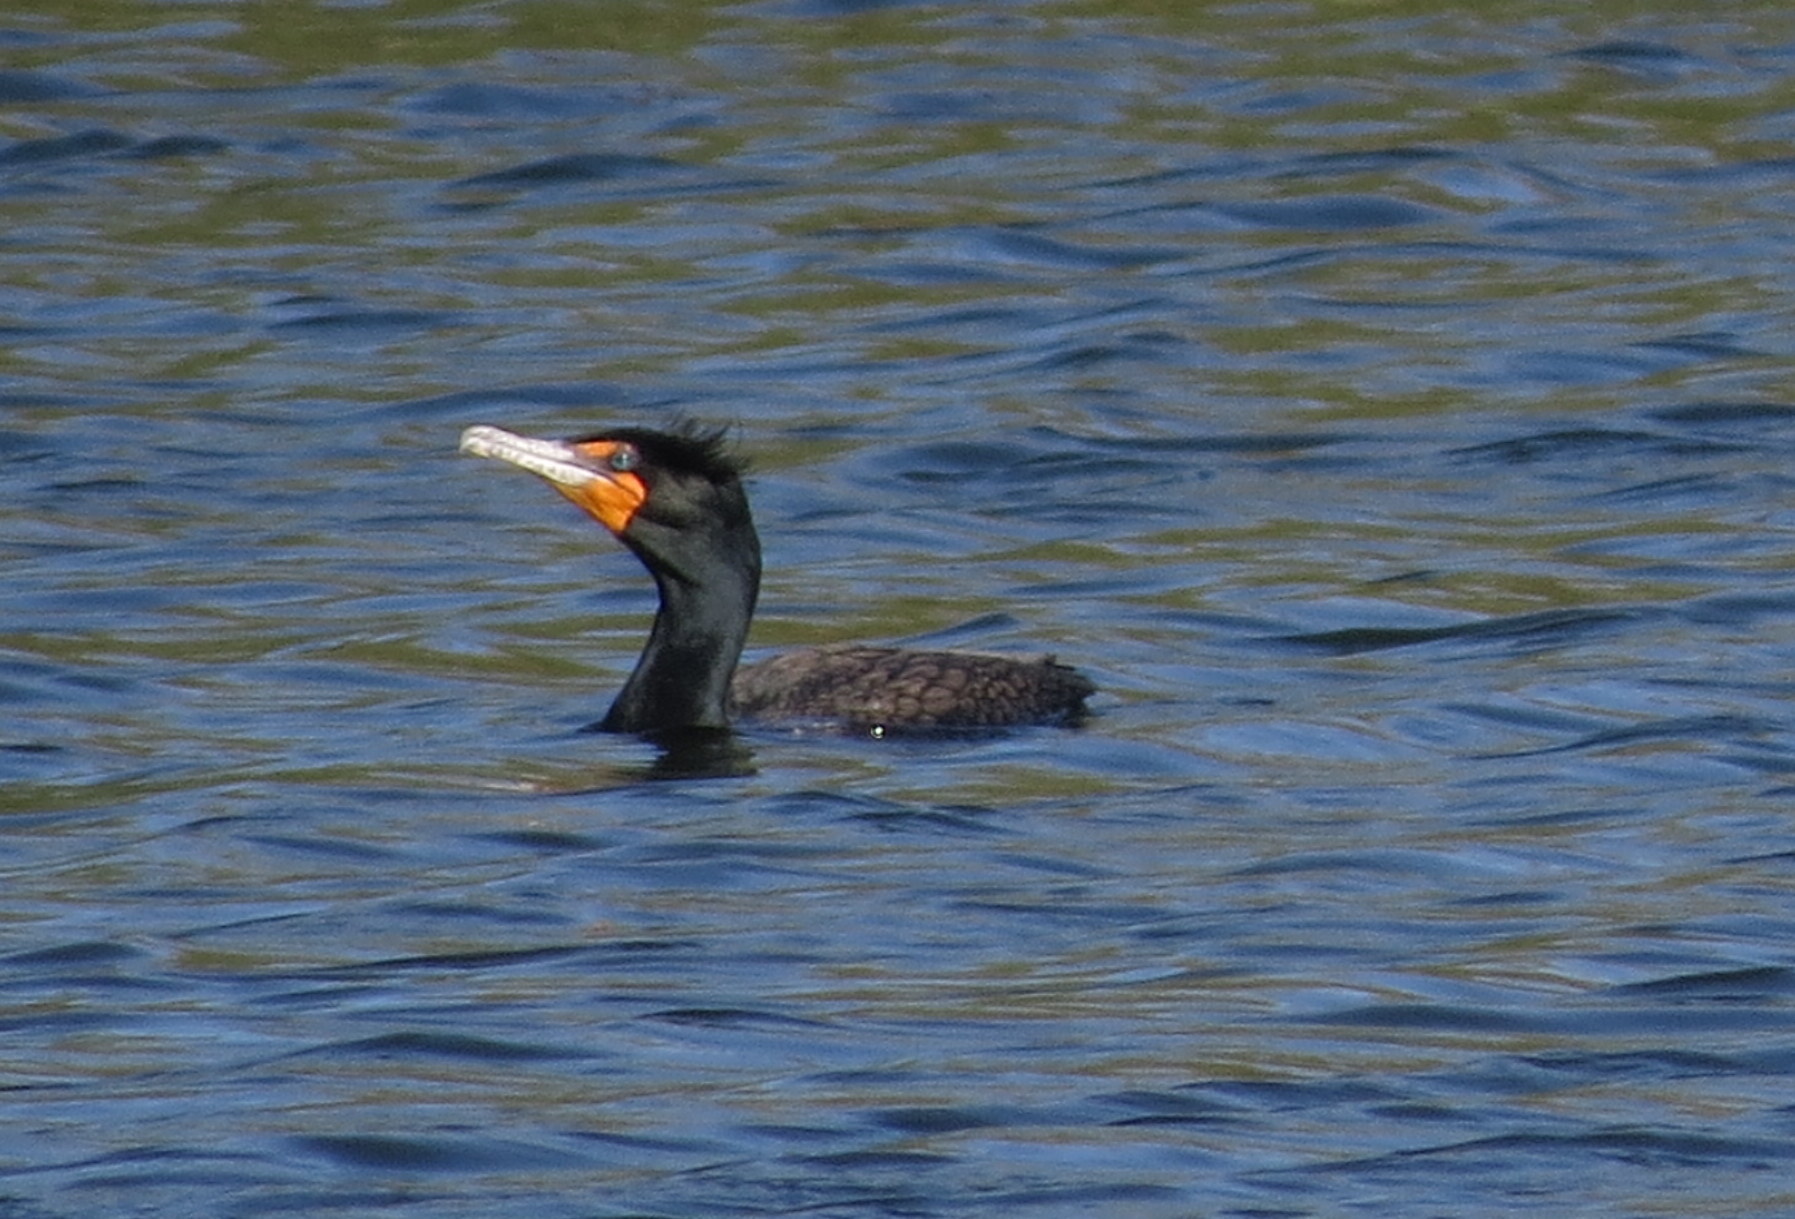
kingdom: Animalia
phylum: Chordata
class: Aves
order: Suliformes
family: Phalacrocoracidae
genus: Phalacrocorax
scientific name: Phalacrocorax auritus
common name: Double-crested cormorant
